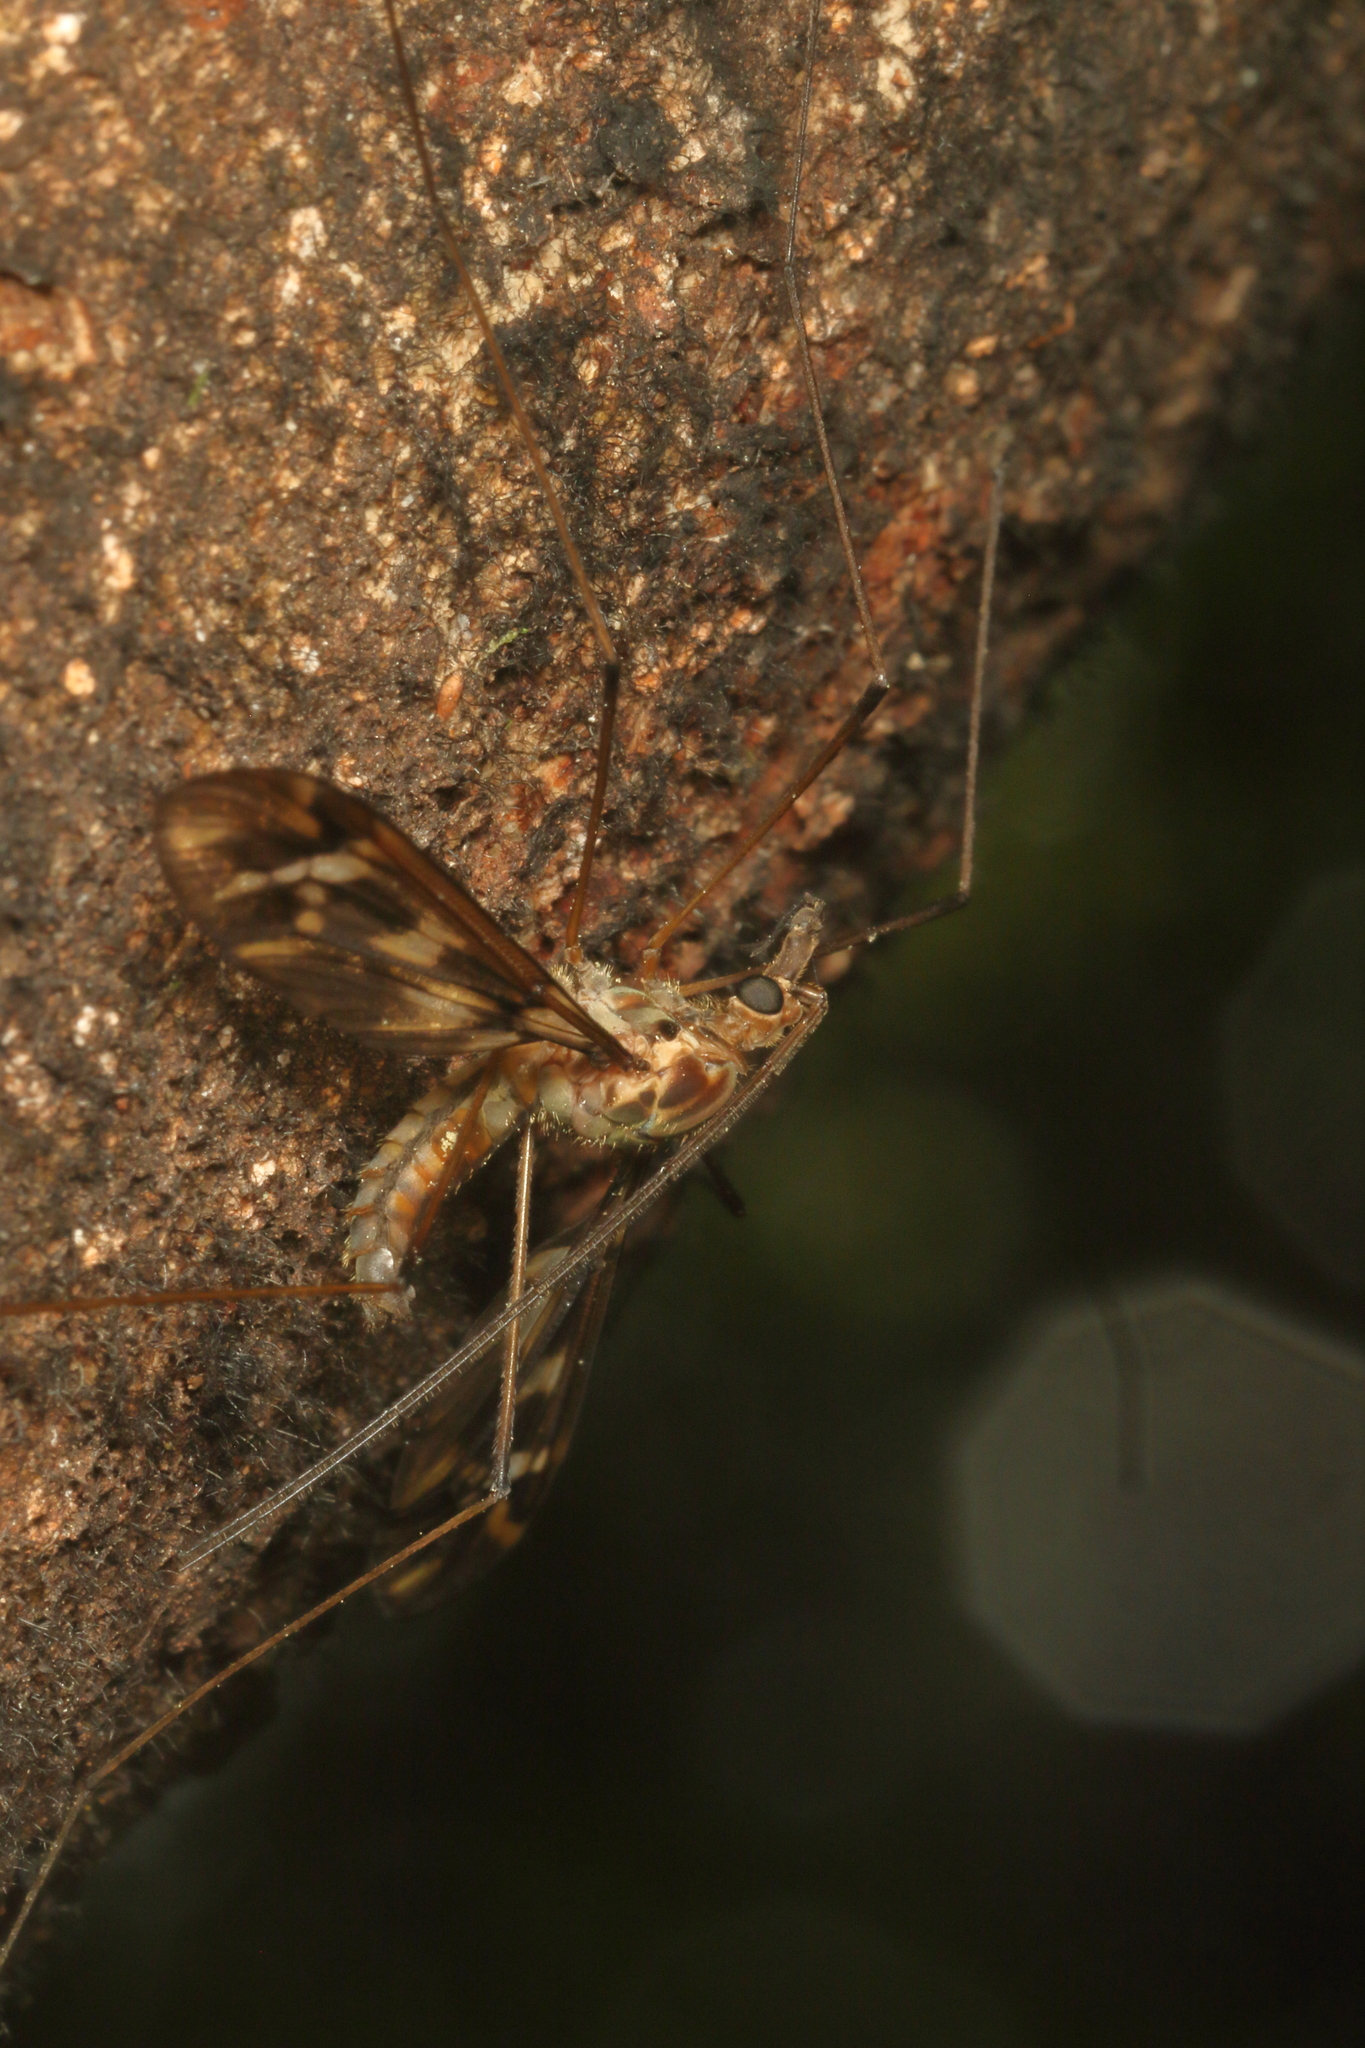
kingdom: Animalia
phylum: Arthropoda
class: Insecta
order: Diptera
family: Tipulidae
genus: Leptotarsus
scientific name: Leptotarsus variegatus
